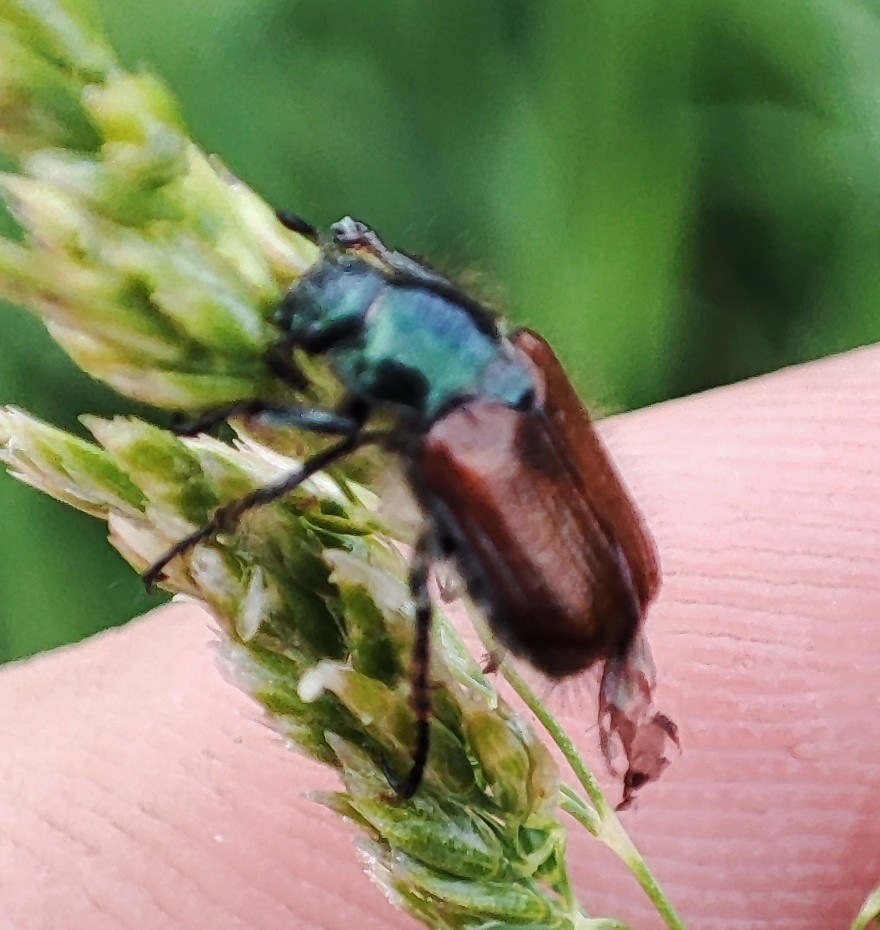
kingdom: Animalia
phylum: Arthropoda
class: Insecta
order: Coleoptera
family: Scarabaeidae
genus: Phyllopertha
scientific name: Phyllopertha horticola
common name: Garden chafer
